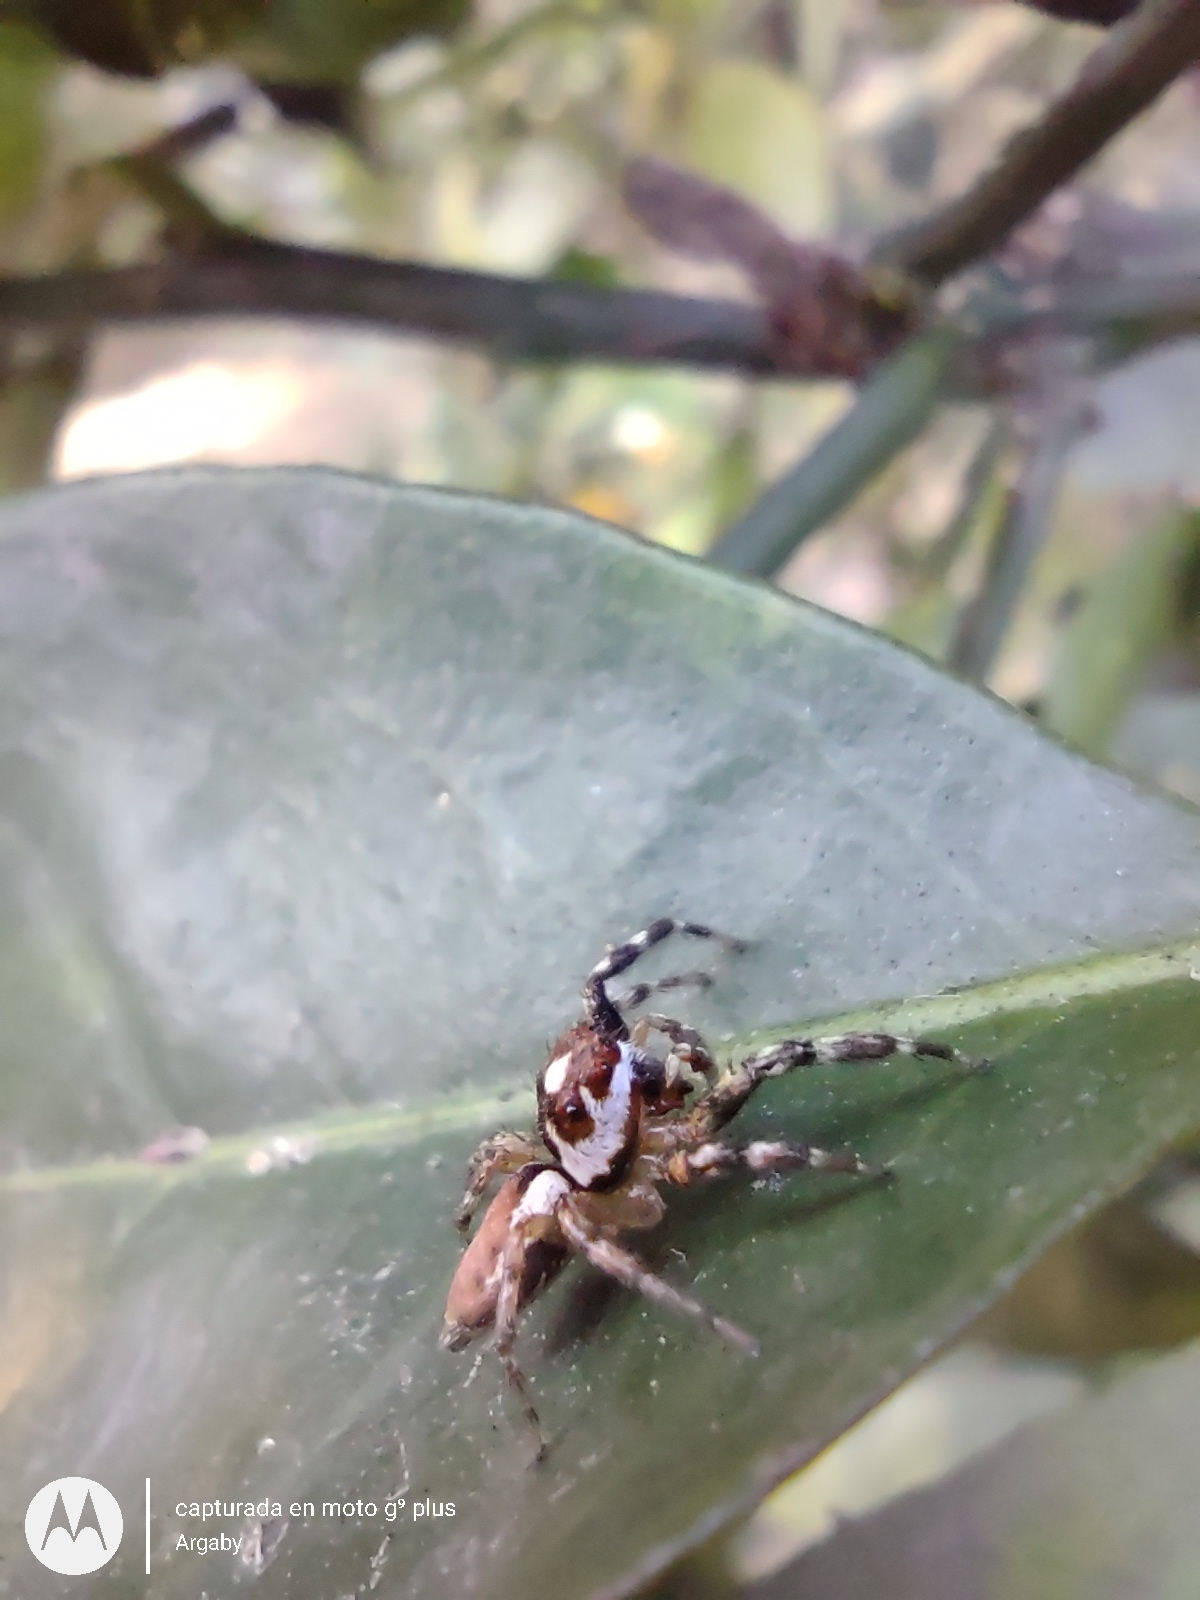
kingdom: Animalia
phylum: Arthropoda
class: Arachnida
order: Araneae
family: Salticidae
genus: Chira
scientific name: Chira gounellei
